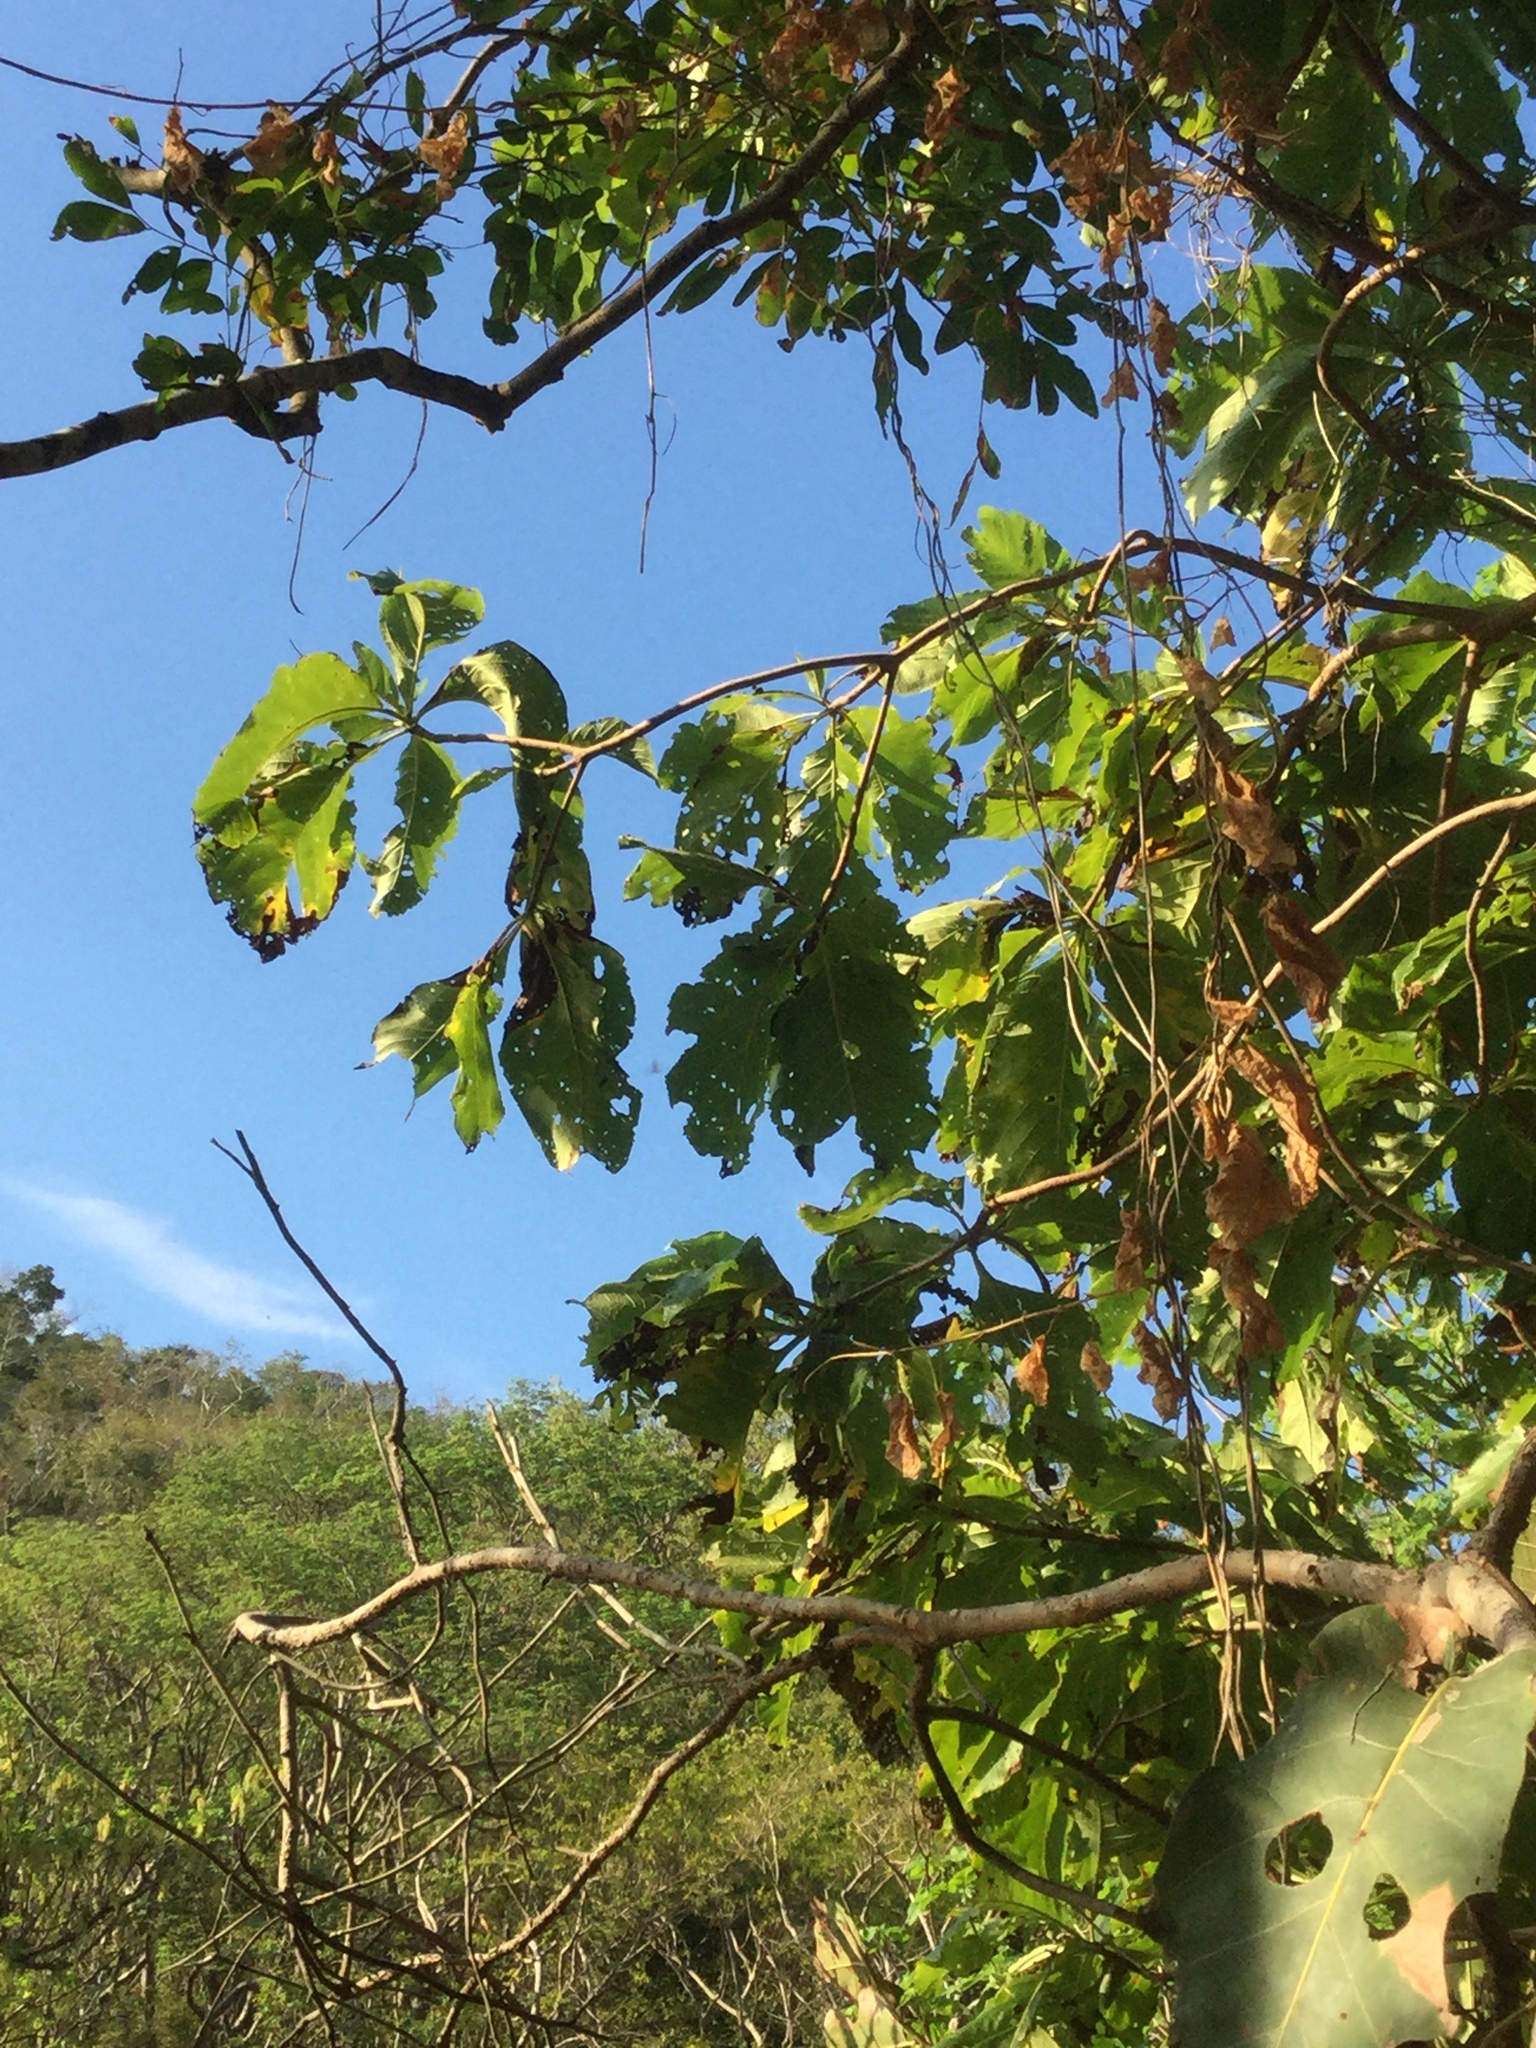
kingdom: Plantae
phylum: Tracheophyta
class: Magnoliopsida
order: Gentianales
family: Rubiaceae
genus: Genipa
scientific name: Genipa americana
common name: Genipap
